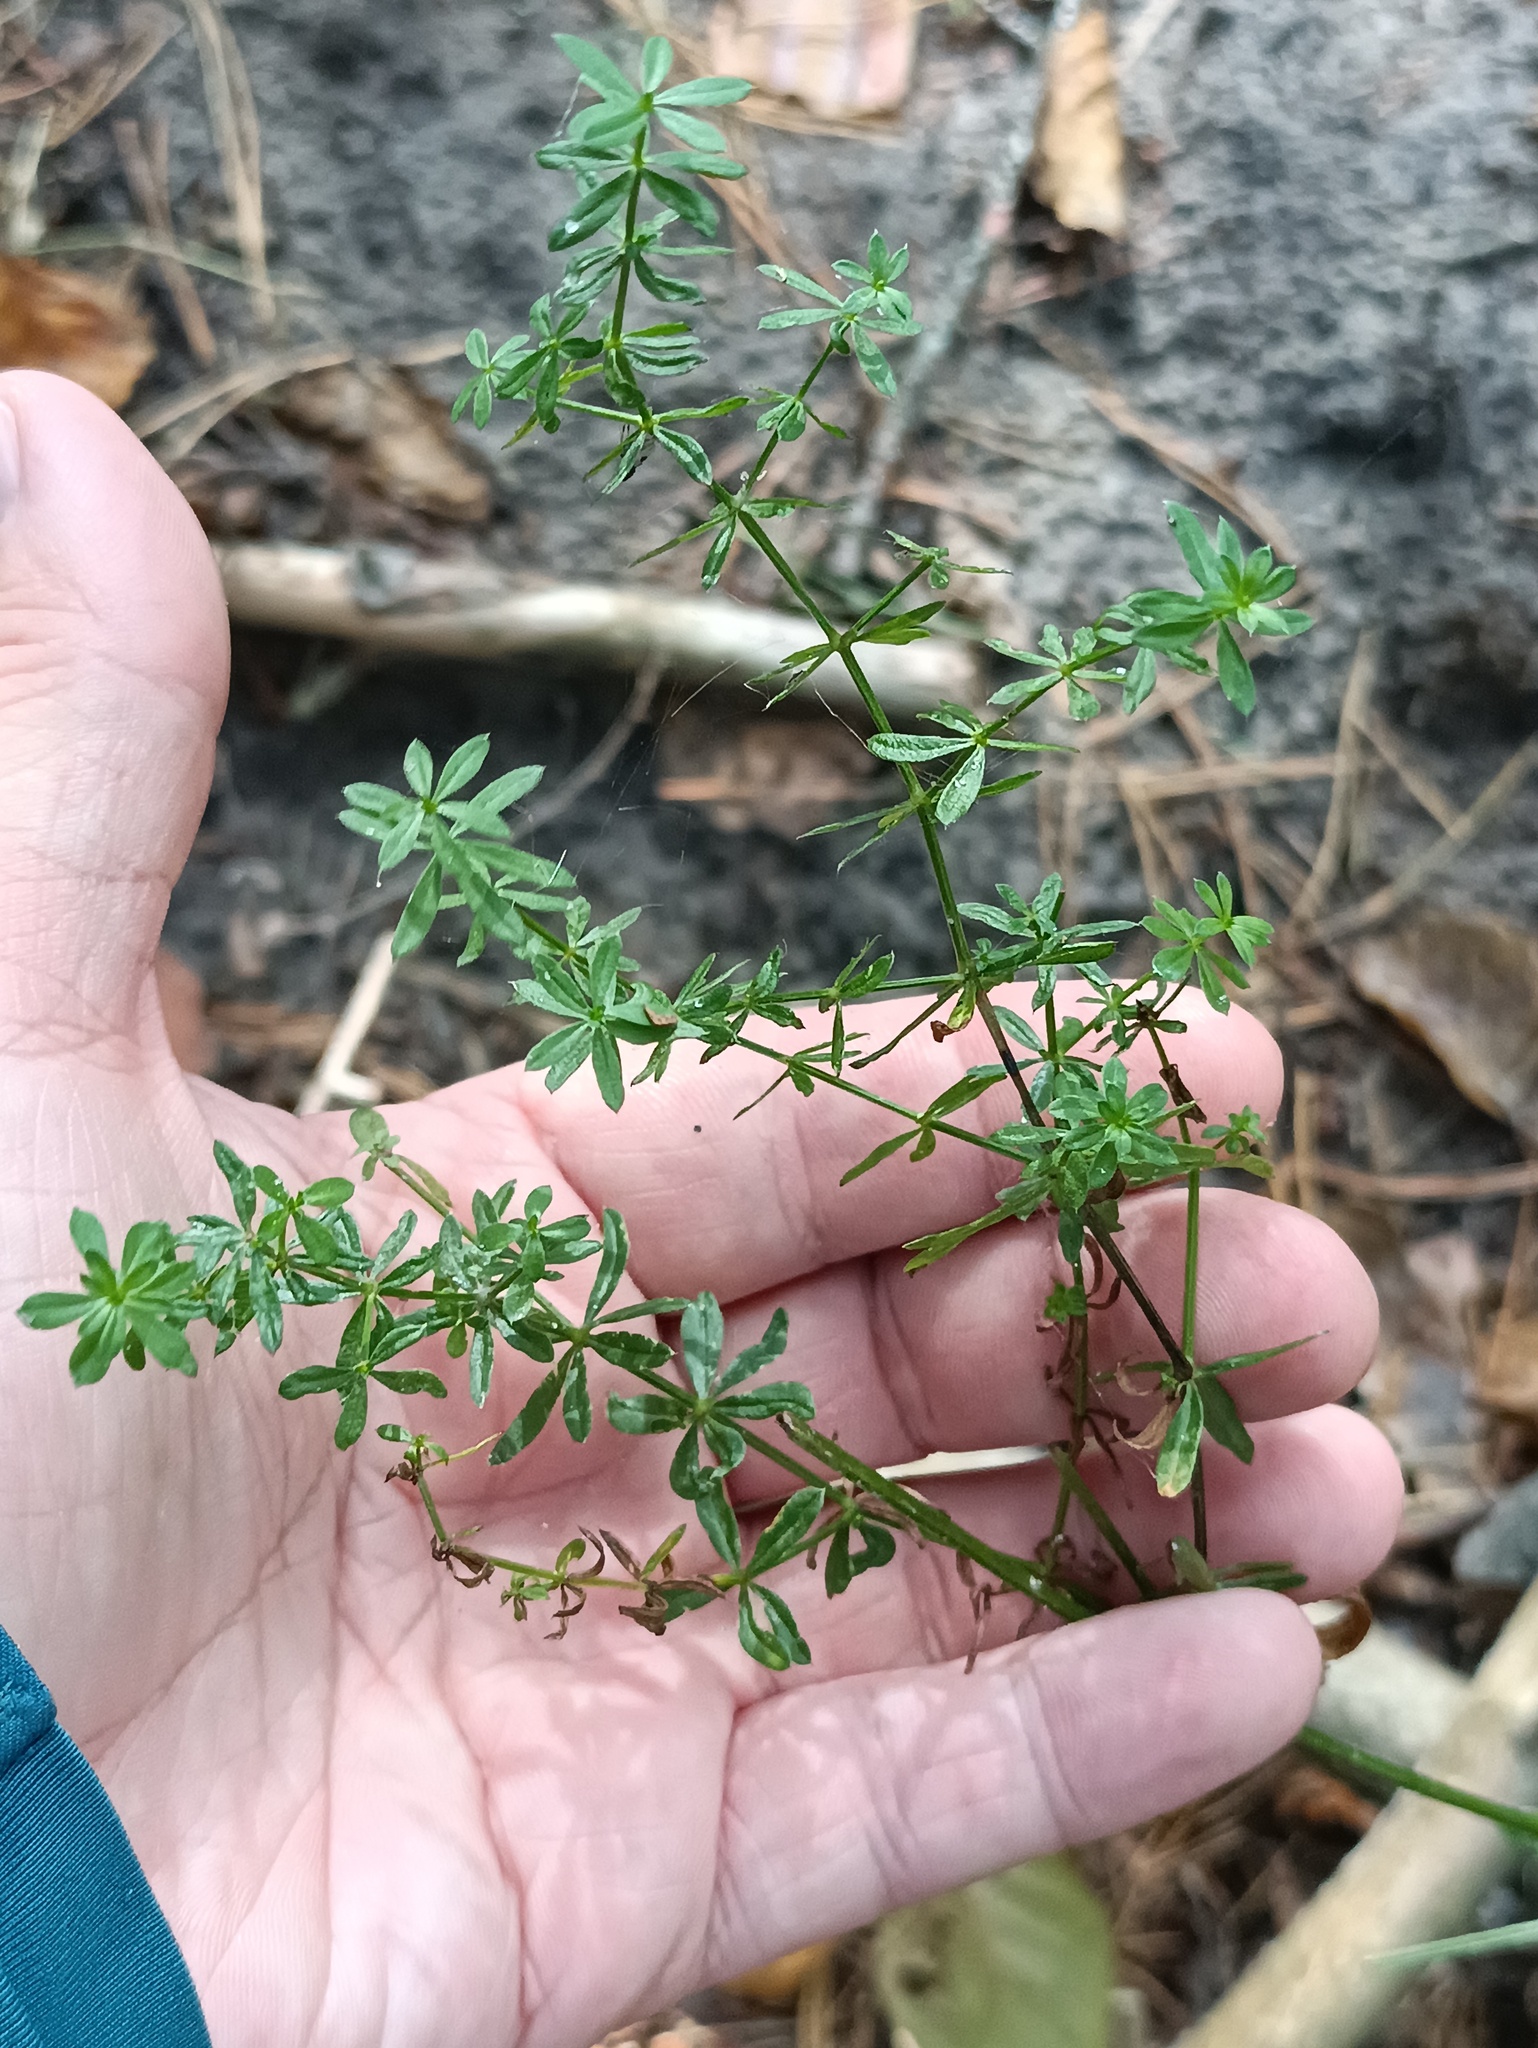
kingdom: Plantae
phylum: Tracheophyta
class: Magnoliopsida
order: Gentianales
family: Rubiaceae
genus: Galium
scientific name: Galium mollugo
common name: Hedge bedstraw
